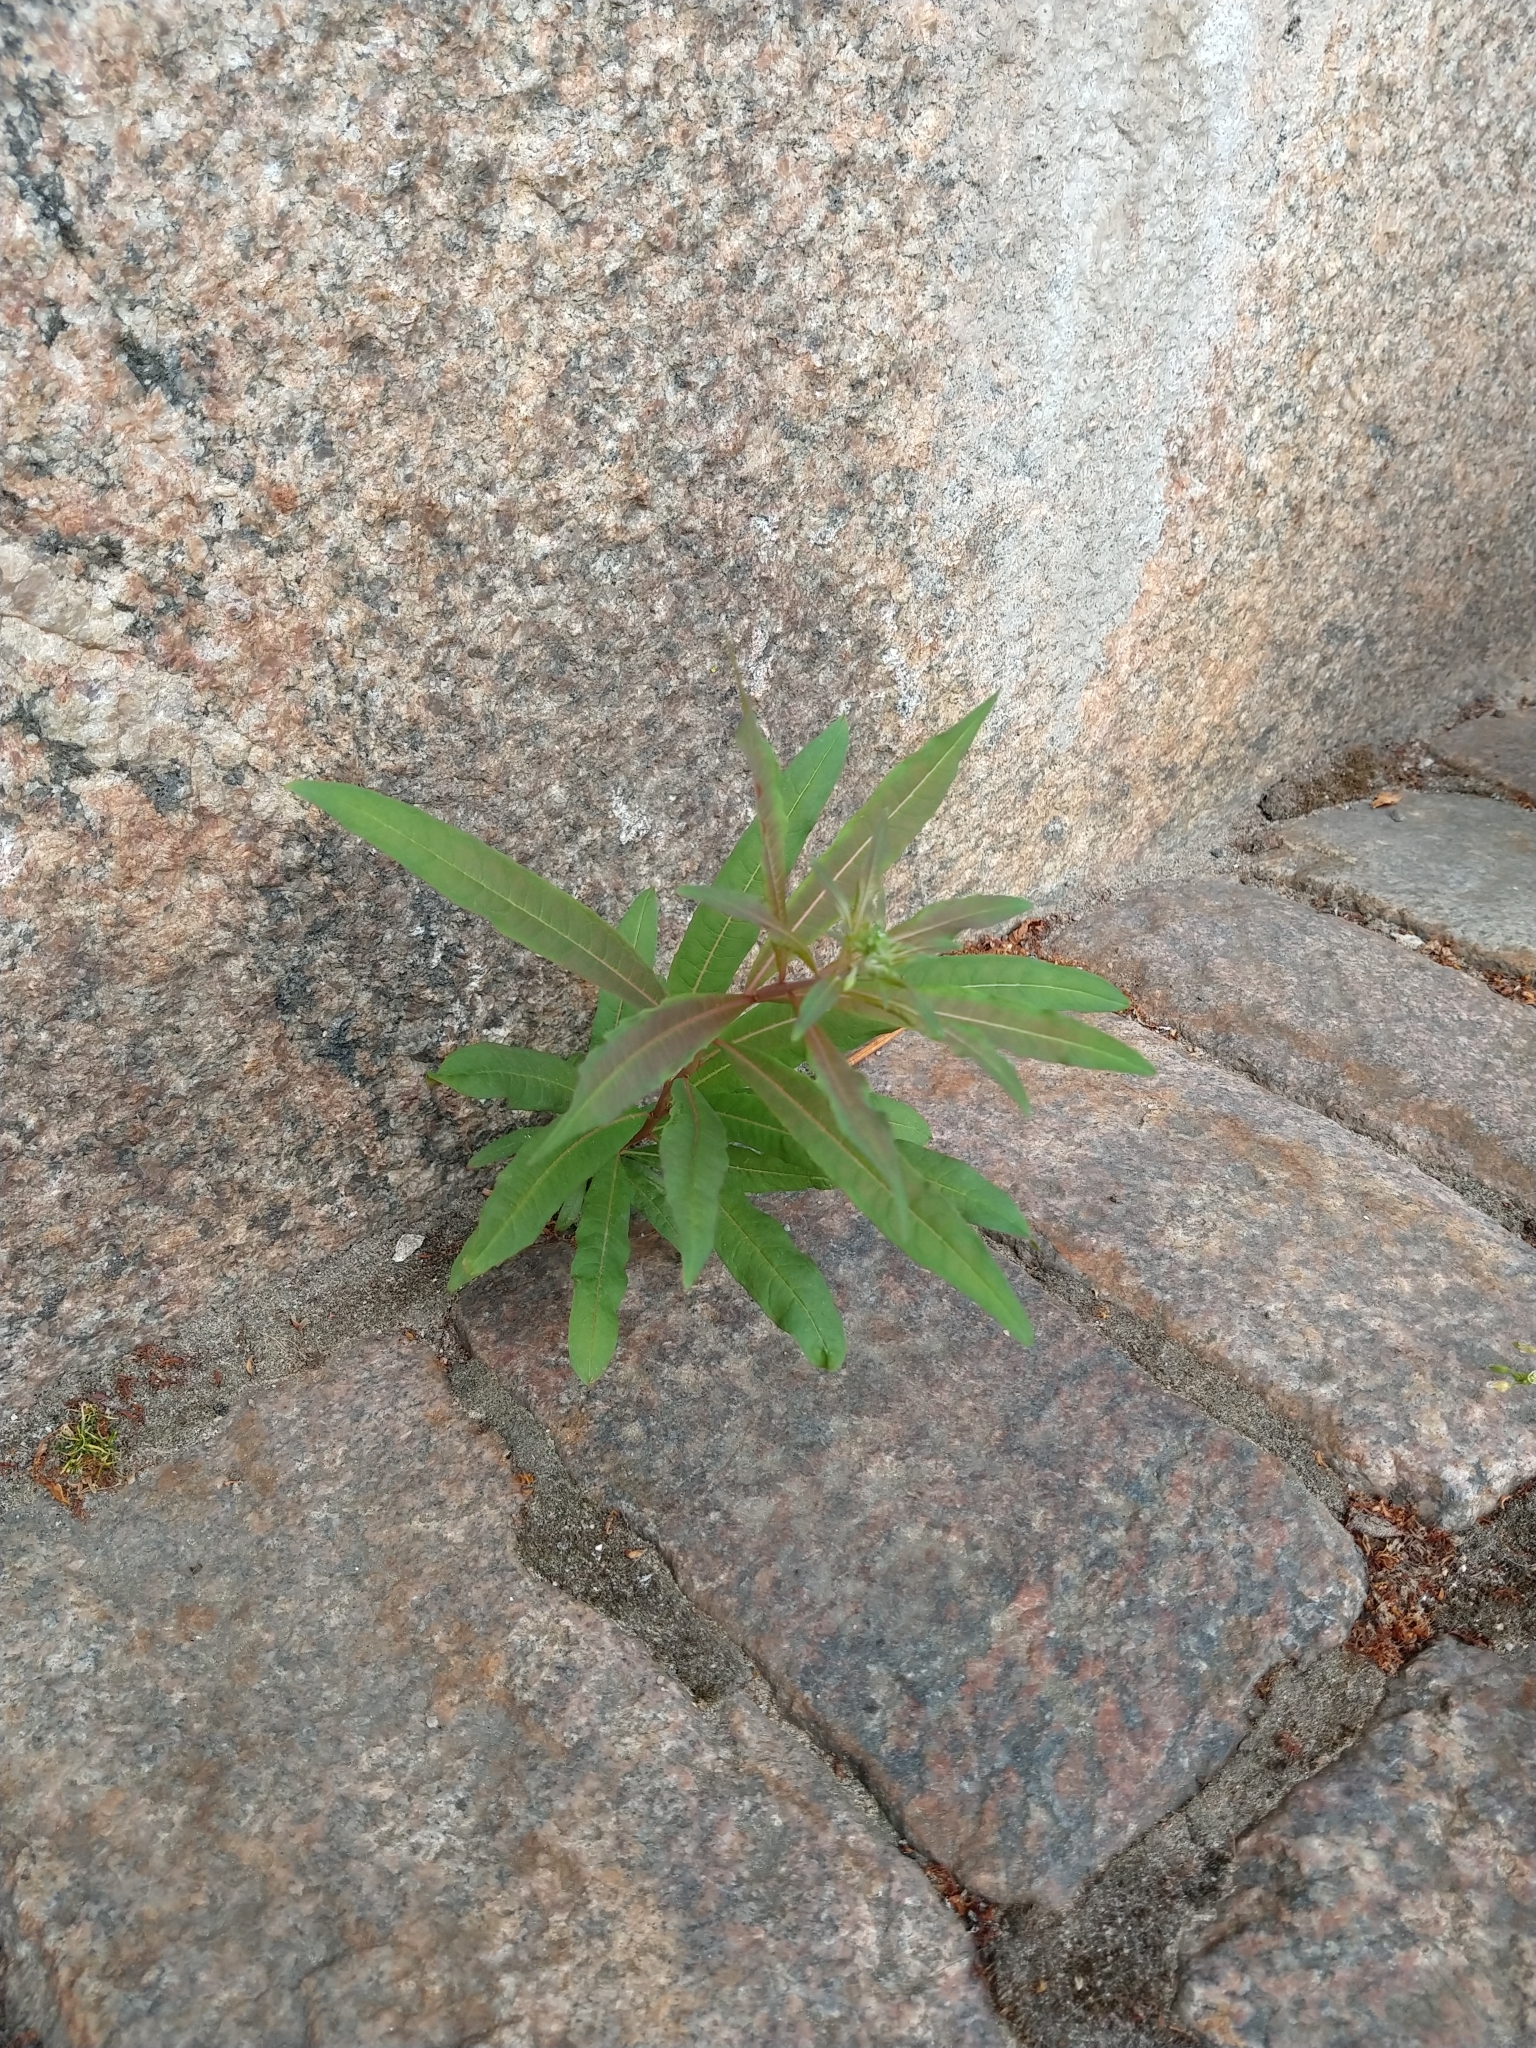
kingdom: Plantae
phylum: Tracheophyta
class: Magnoliopsida
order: Myrtales
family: Onagraceae
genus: Chamaenerion
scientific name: Chamaenerion angustifolium
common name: Fireweed
